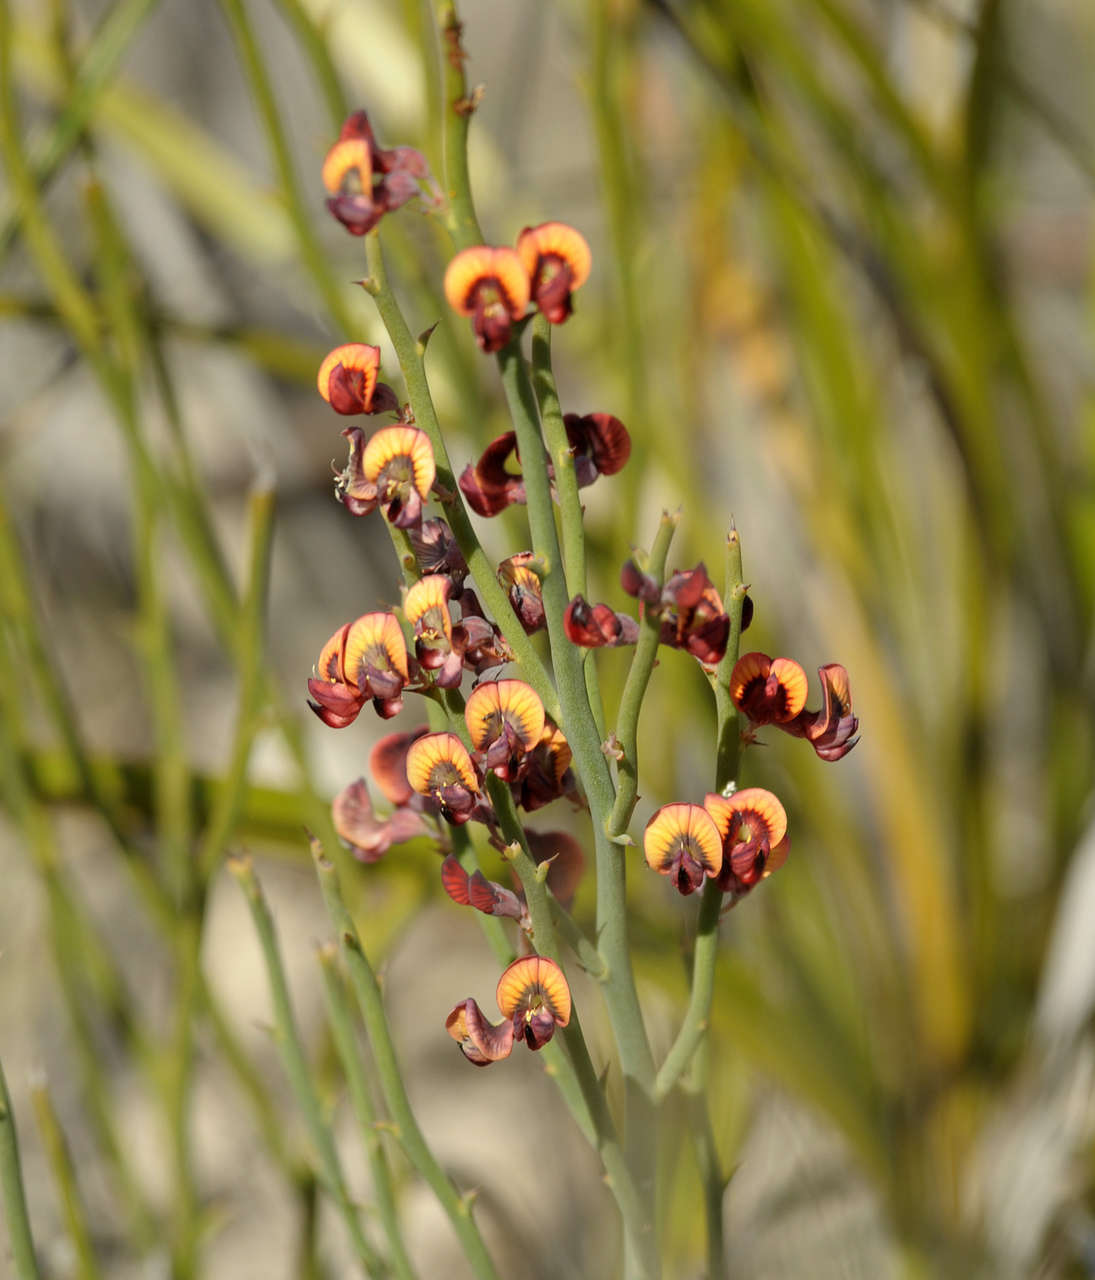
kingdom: Plantae
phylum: Tracheophyta
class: Magnoliopsida
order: Fabales
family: Fabaceae
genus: Daviesia
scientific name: Daviesia brevifolia
